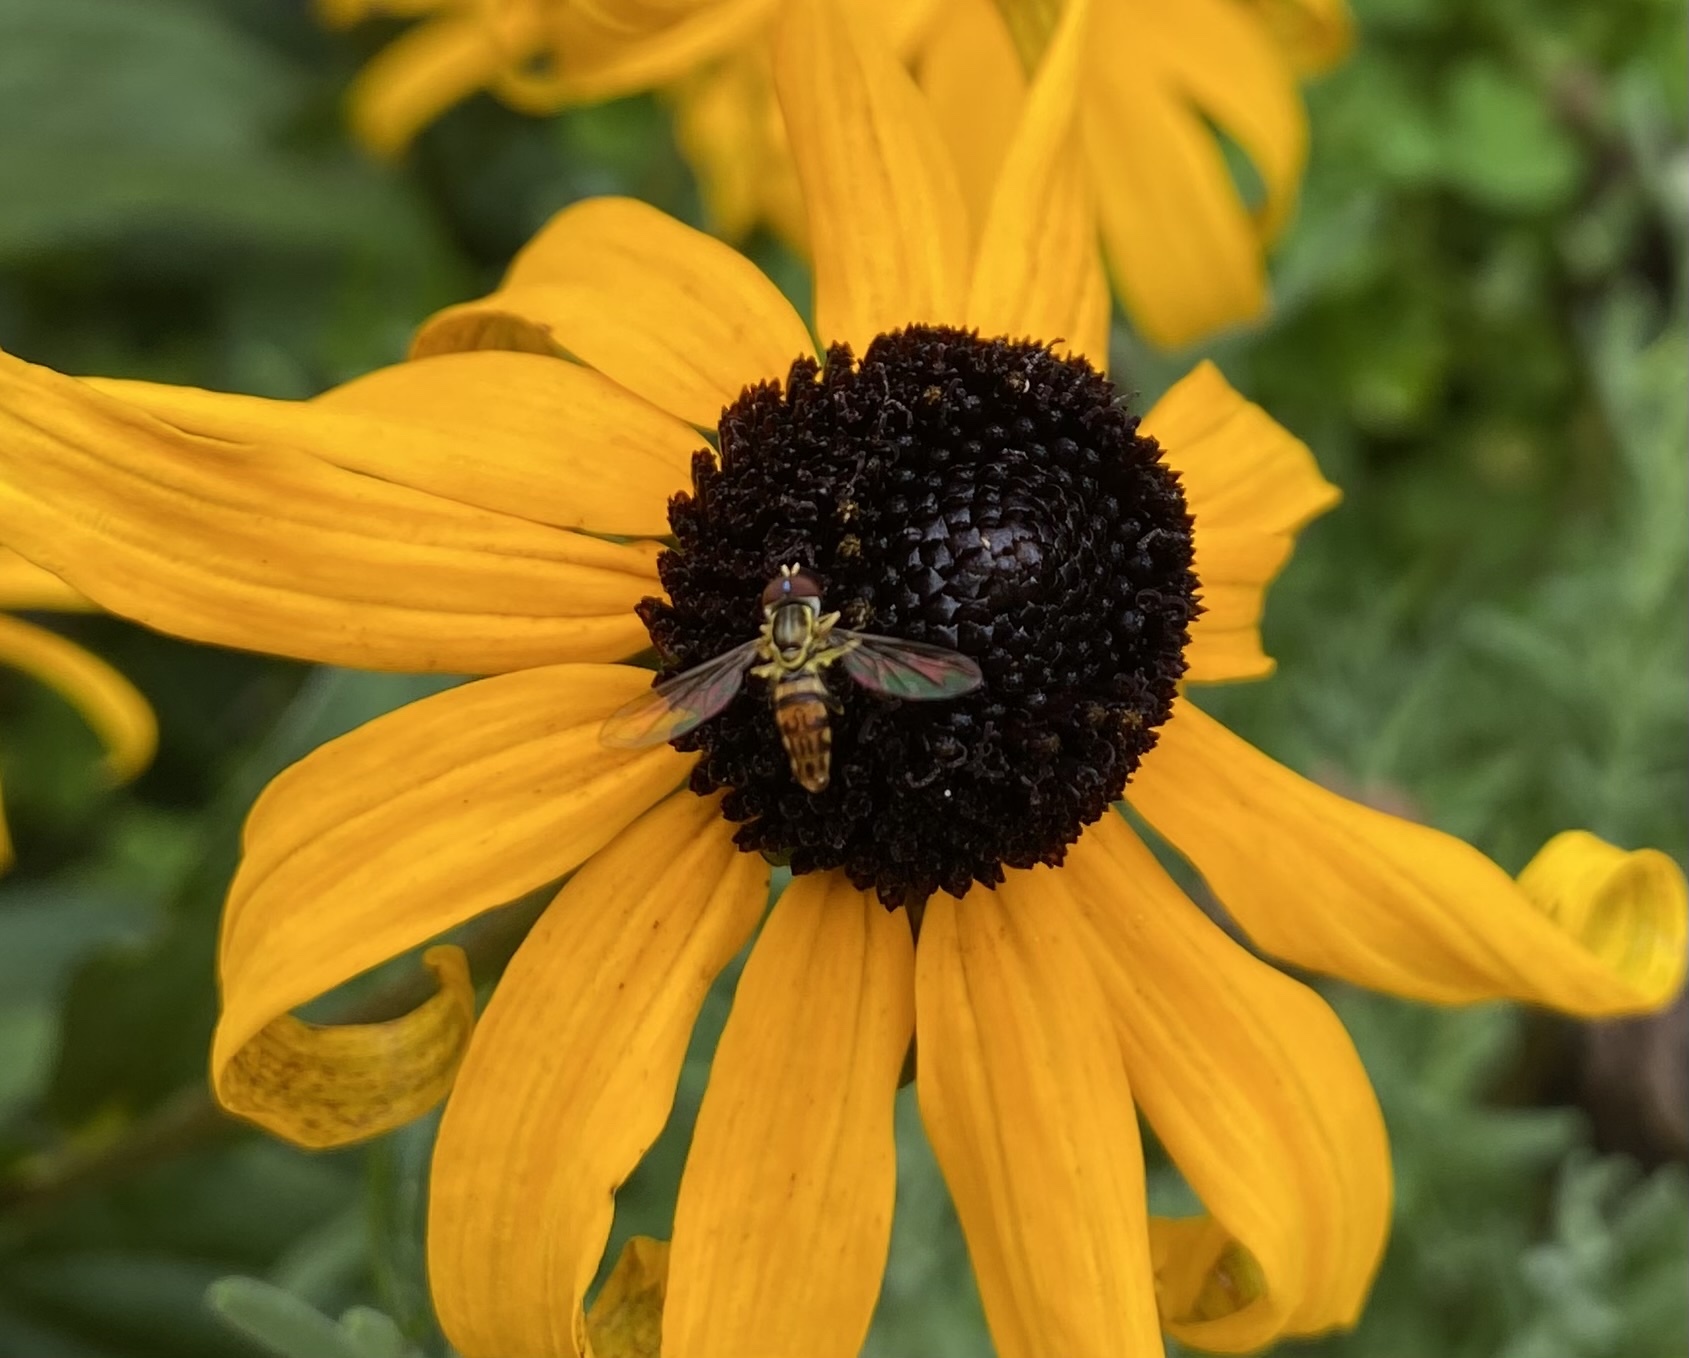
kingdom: Animalia
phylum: Arthropoda
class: Insecta
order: Diptera
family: Syrphidae
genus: Toxomerus
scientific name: Toxomerus geminatus
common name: Eastern calligrapher
